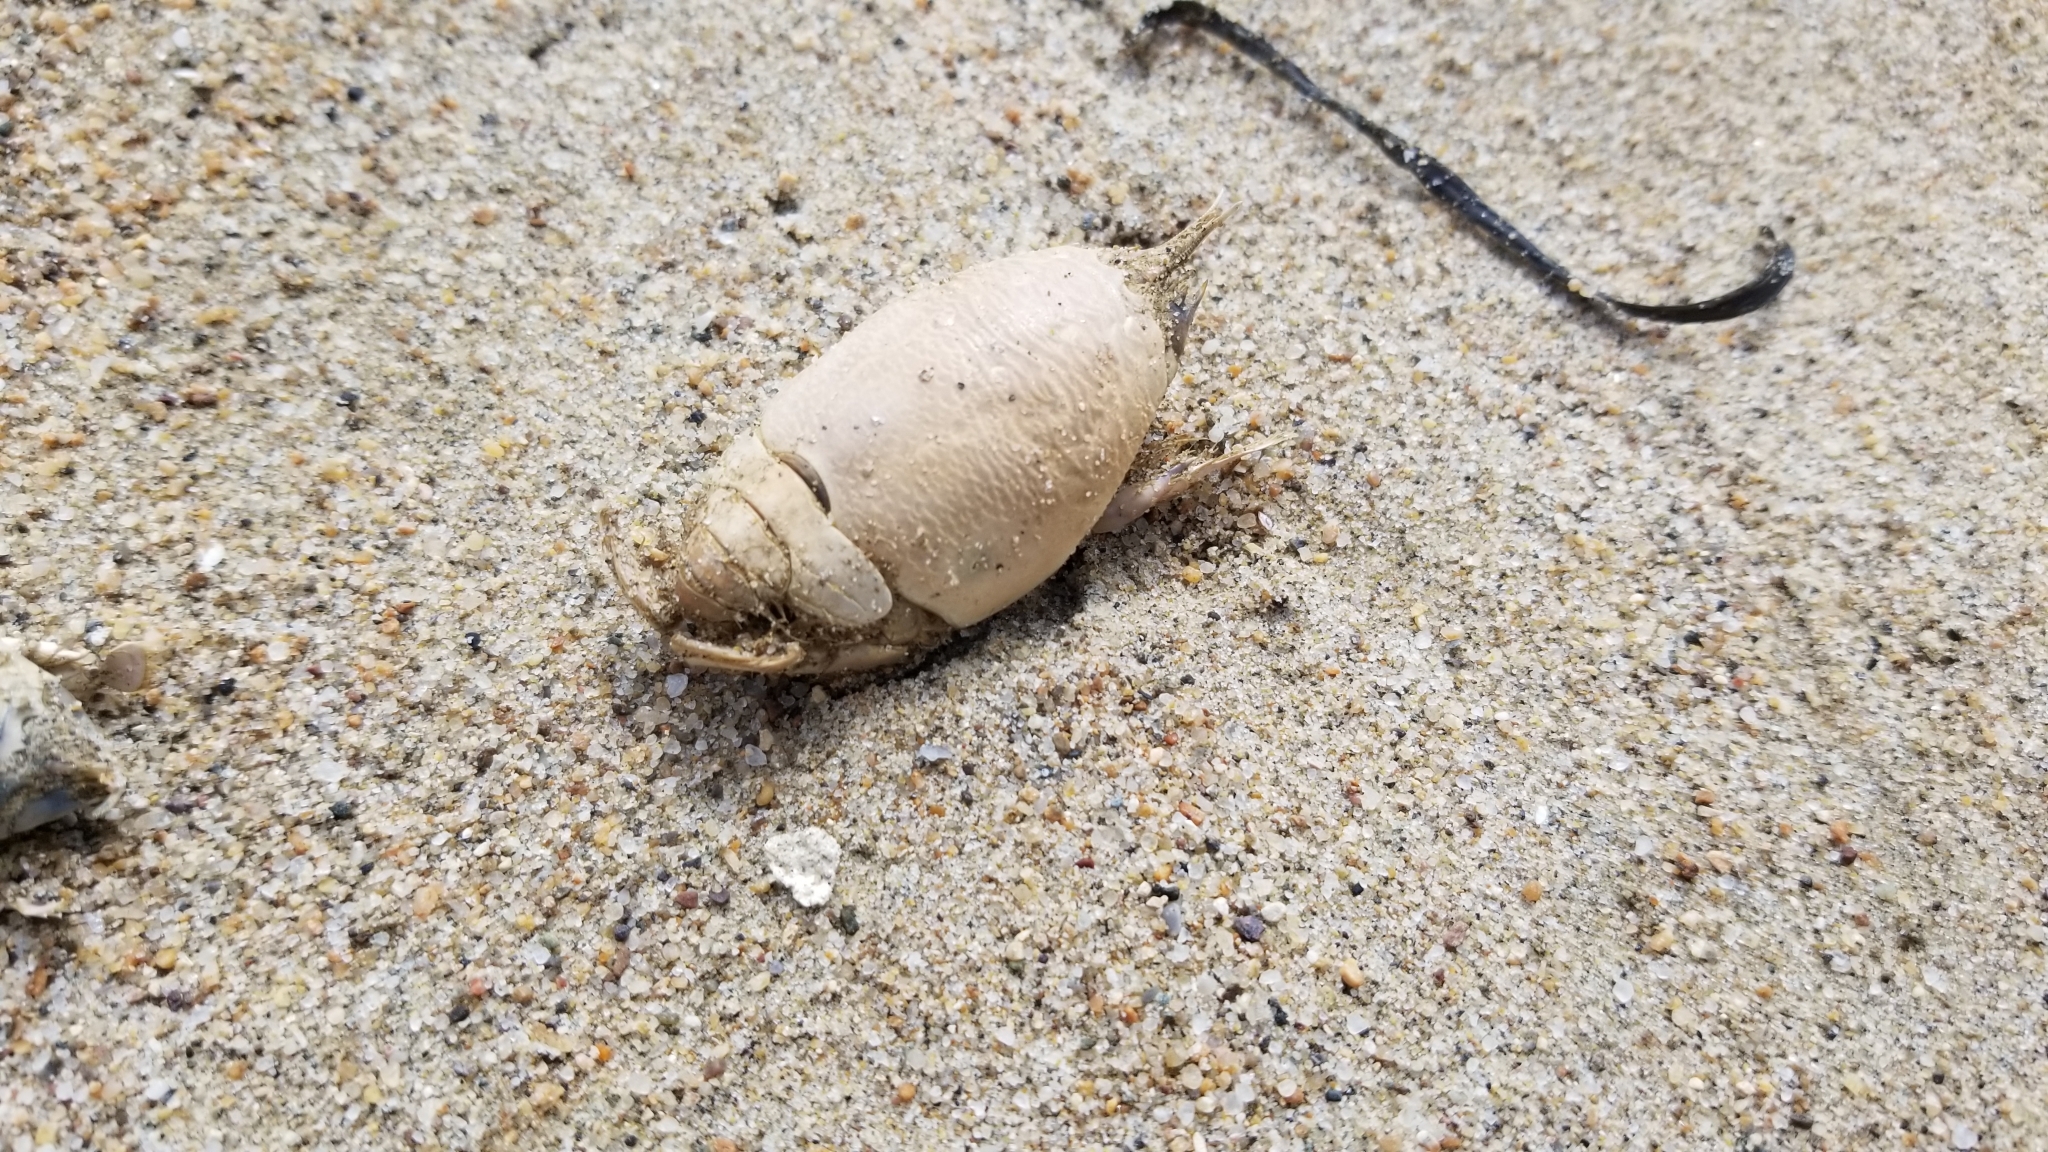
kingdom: Animalia
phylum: Arthropoda
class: Malacostraca
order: Decapoda
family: Hippidae
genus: Emerita
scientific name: Emerita analoga
